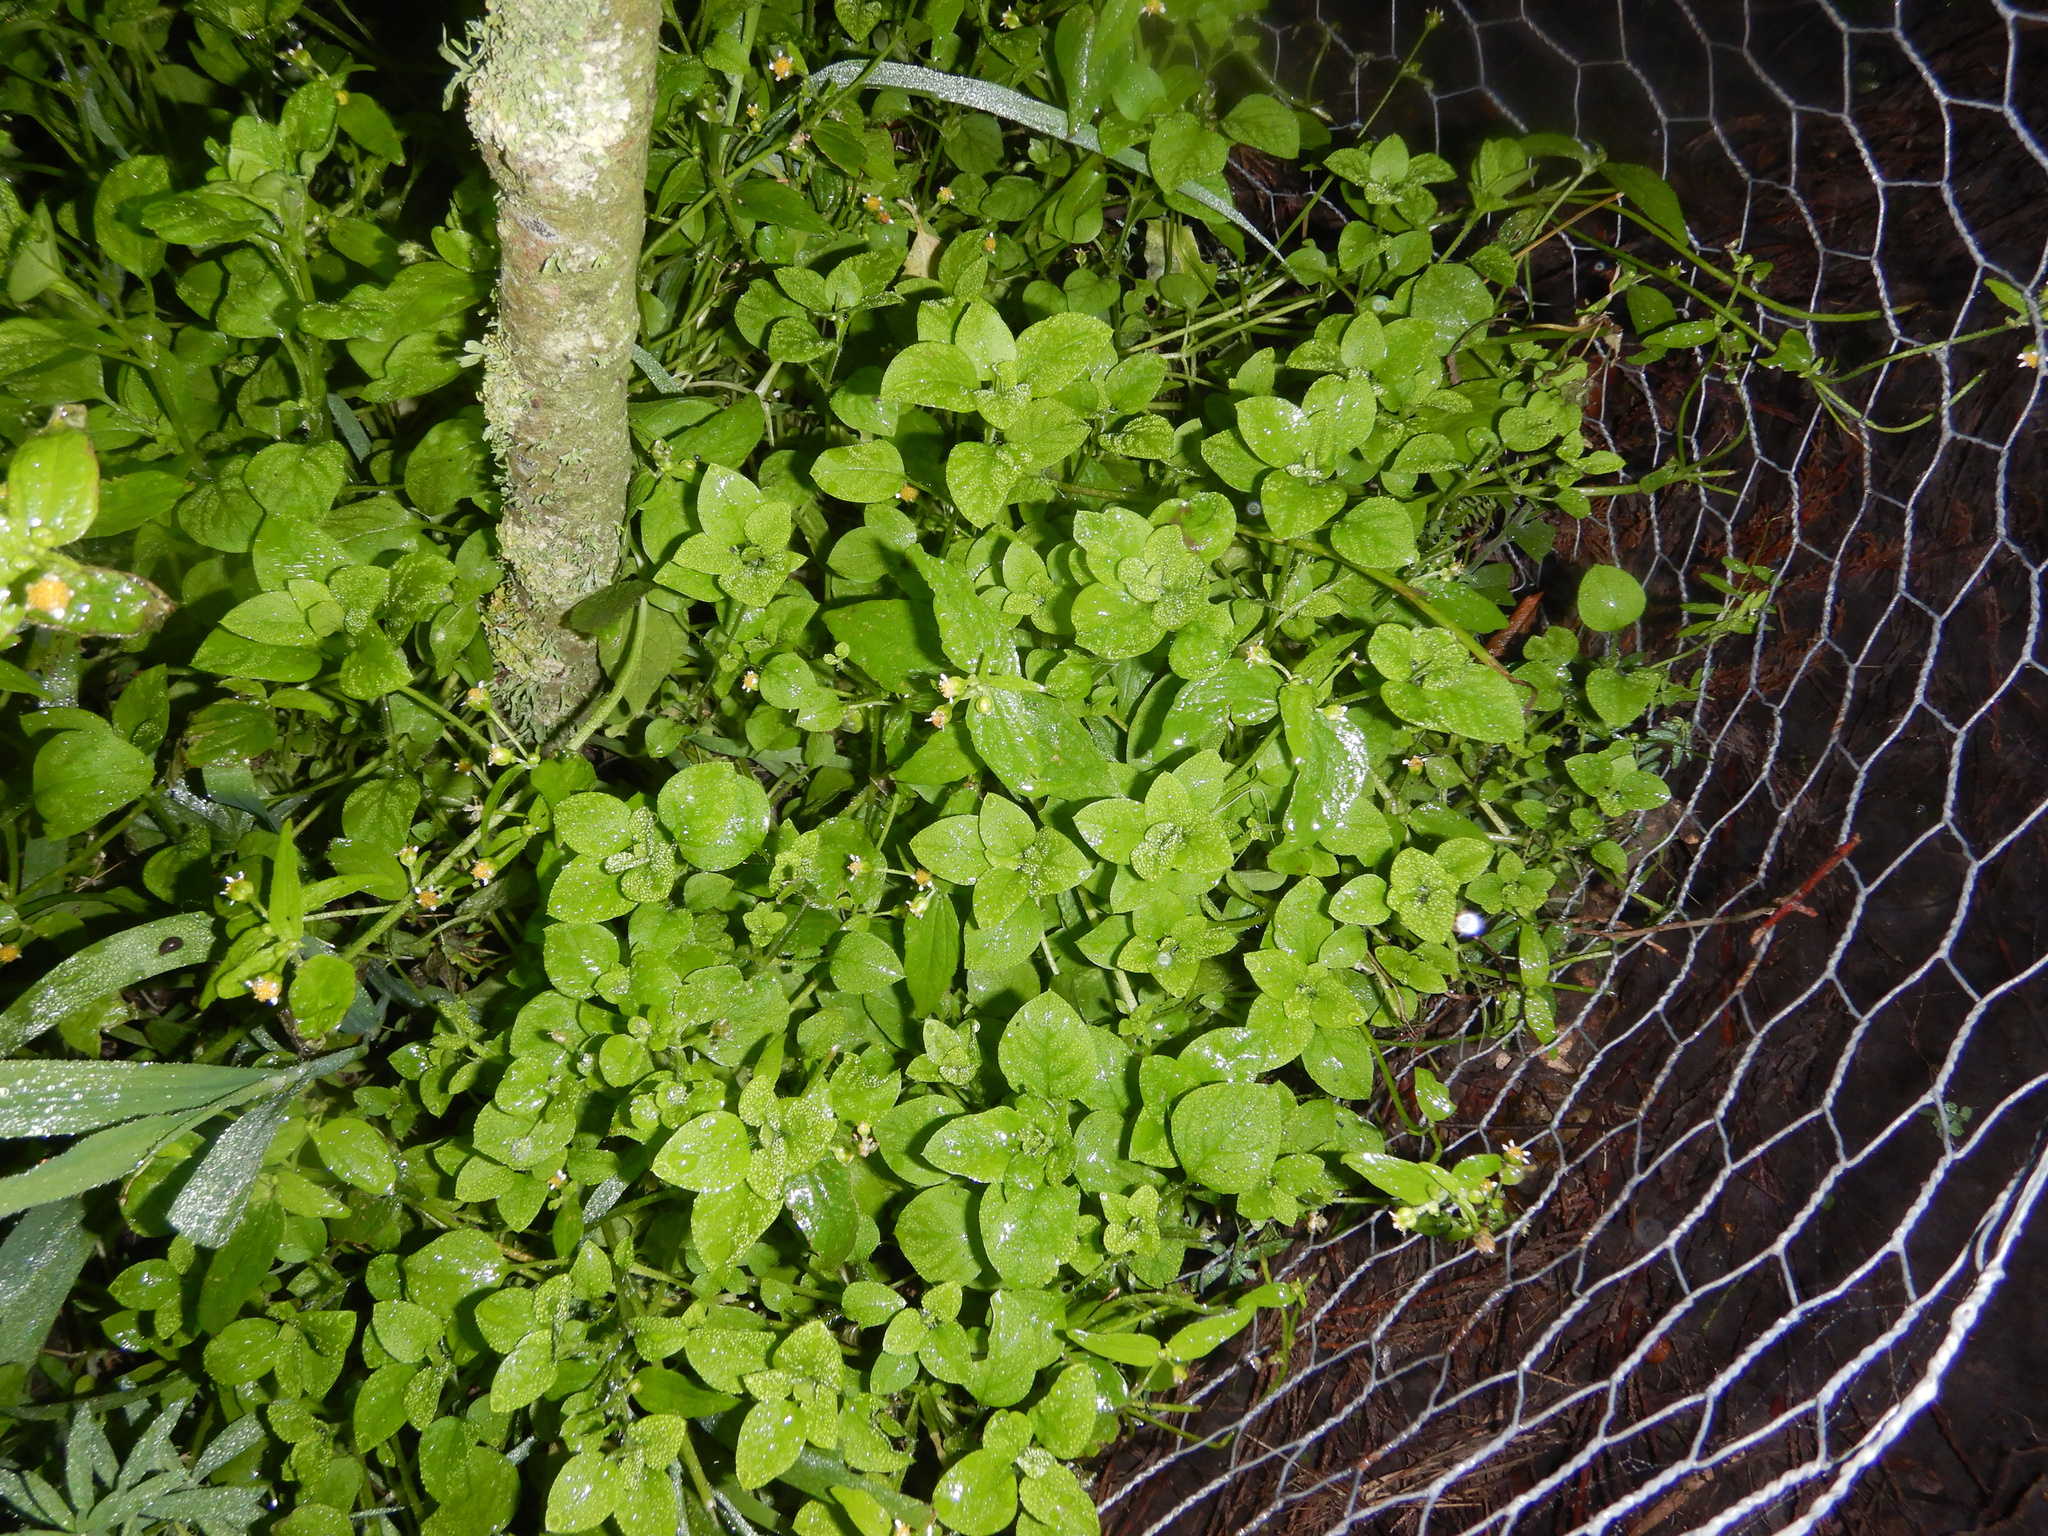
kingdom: Plantae
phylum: Tracheophyta
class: Magnoliopsida
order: Asterales
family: Asteraceae
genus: Galinsoga
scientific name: Galinsoga parviflora
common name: Gallant soldier
